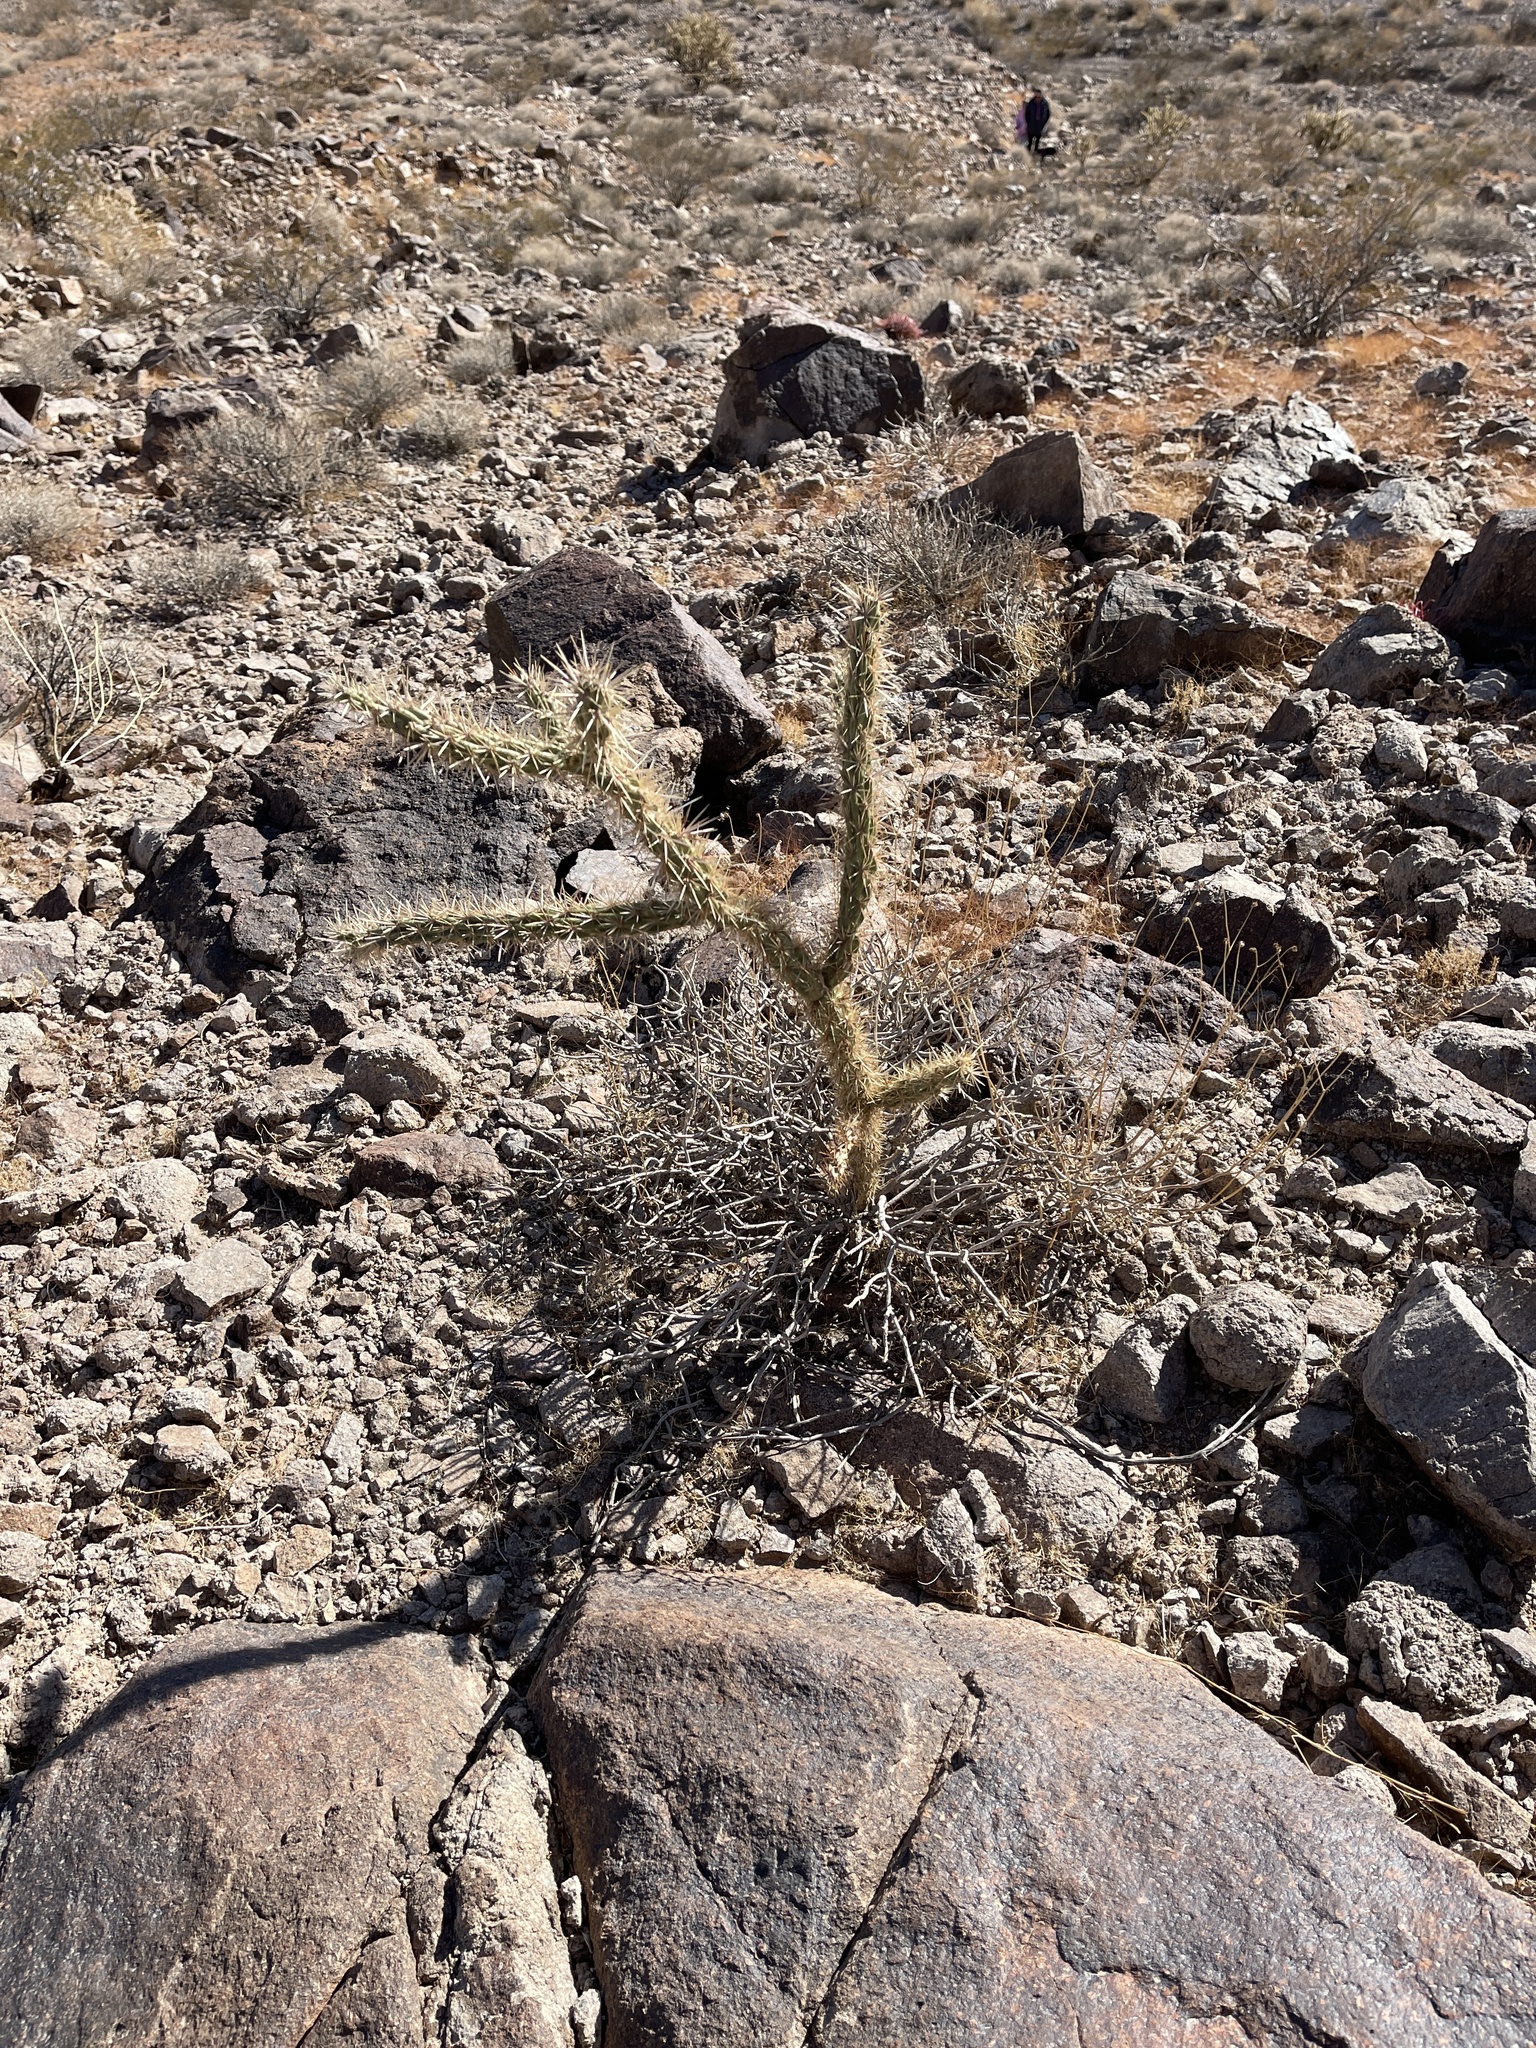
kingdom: Plantae
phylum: Tracheophyta
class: Magnoliopsida
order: Caryophyllales
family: Cactaceae
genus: Cylindropuntia
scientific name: Cylindropuntia acanthocarpa
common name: Buckhorn cholla
